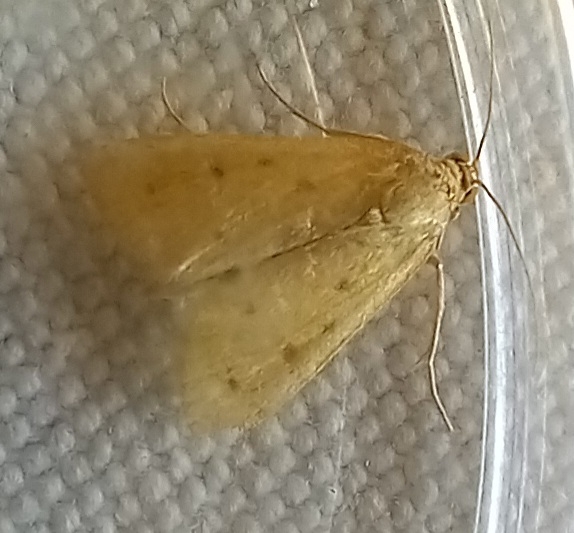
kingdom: Animalia
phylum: Arthropoda
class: Insecta
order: Lepidoptera
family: Crambidae
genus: Achyra
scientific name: Achyra nudalis
